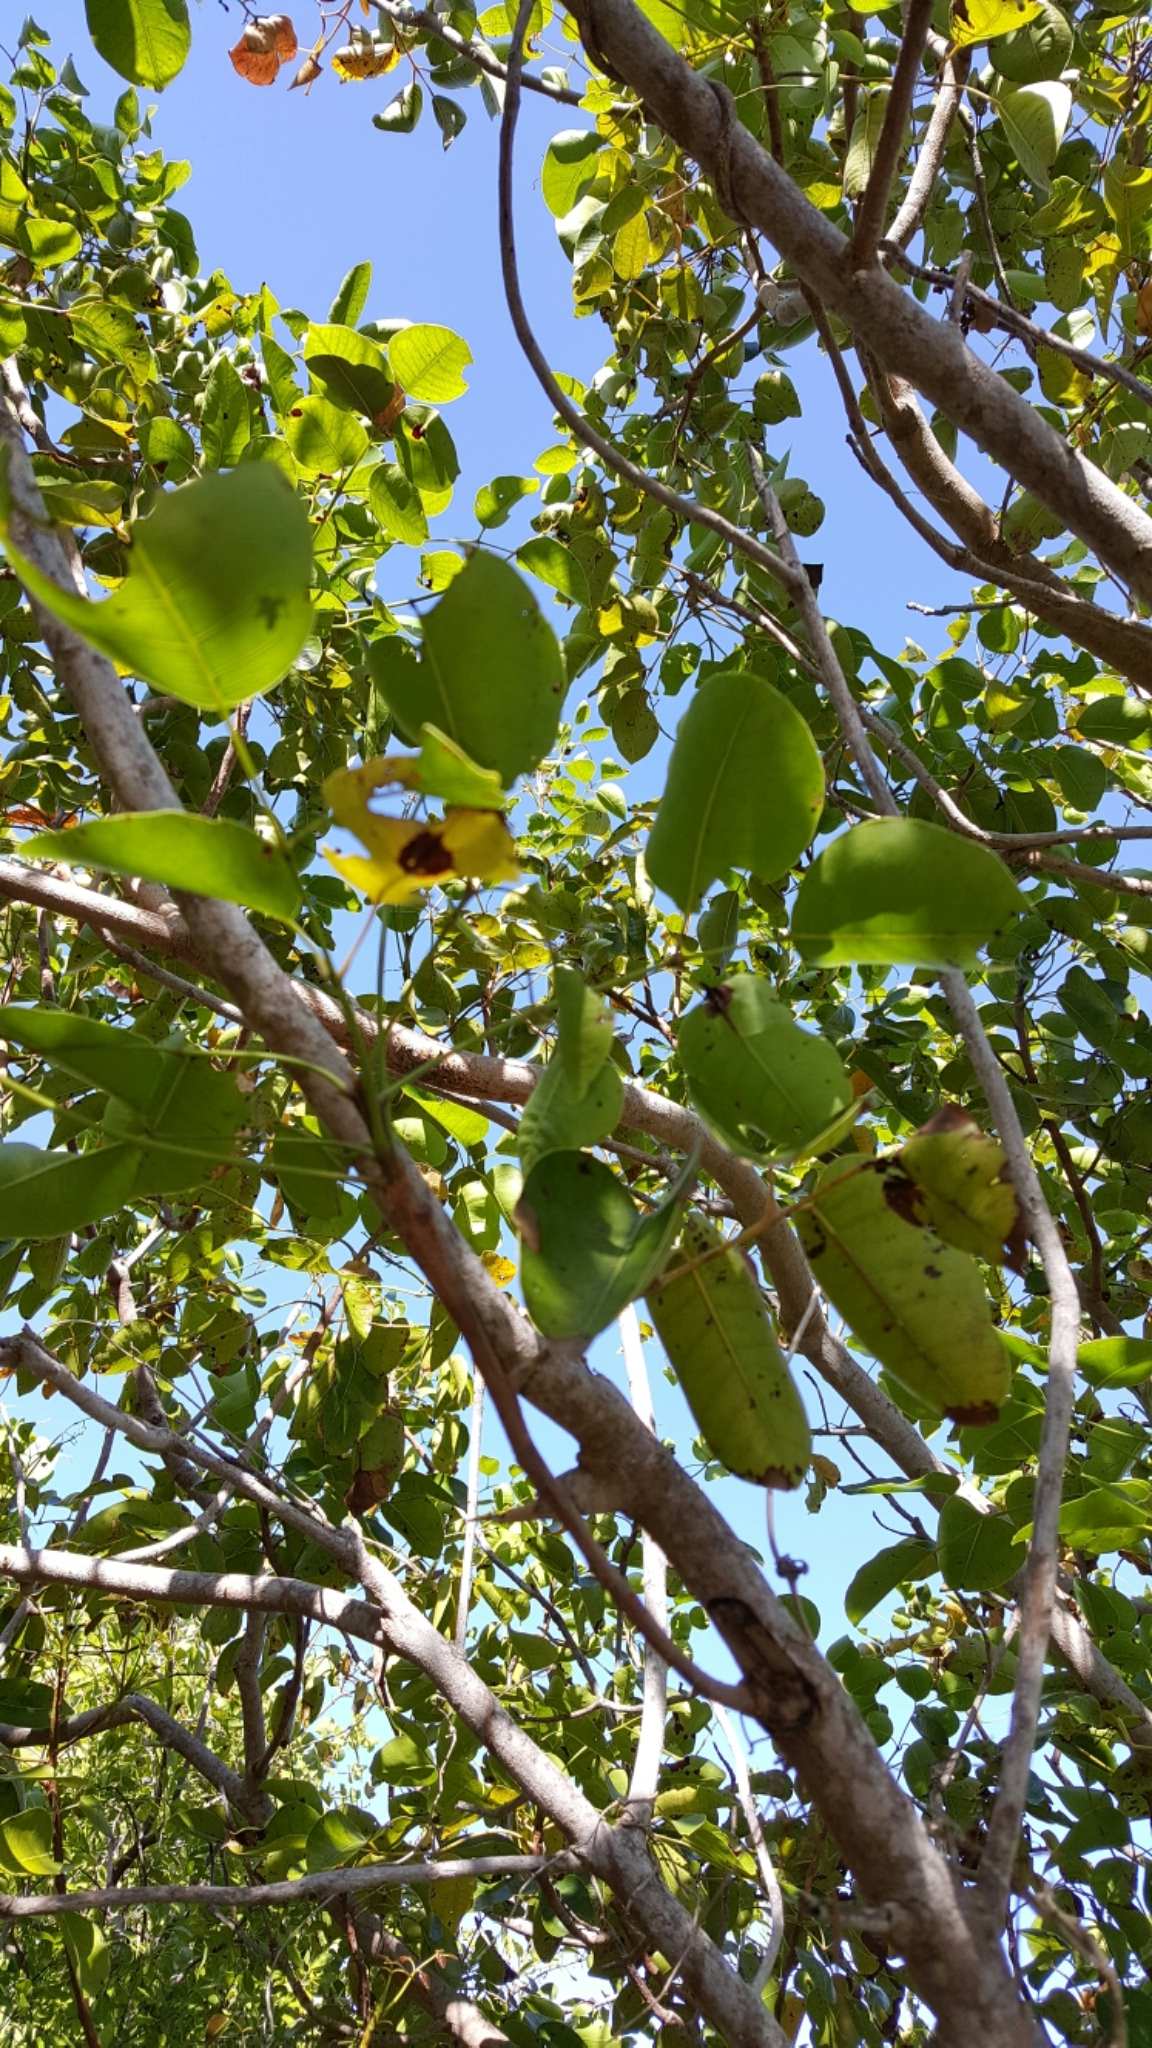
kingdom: Plantae
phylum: Tracheophyta
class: Magnoliopsida
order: Sapindales
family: Anacardiaceae
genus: Metopium
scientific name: Metopium toxiferum
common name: Florida poisontree
